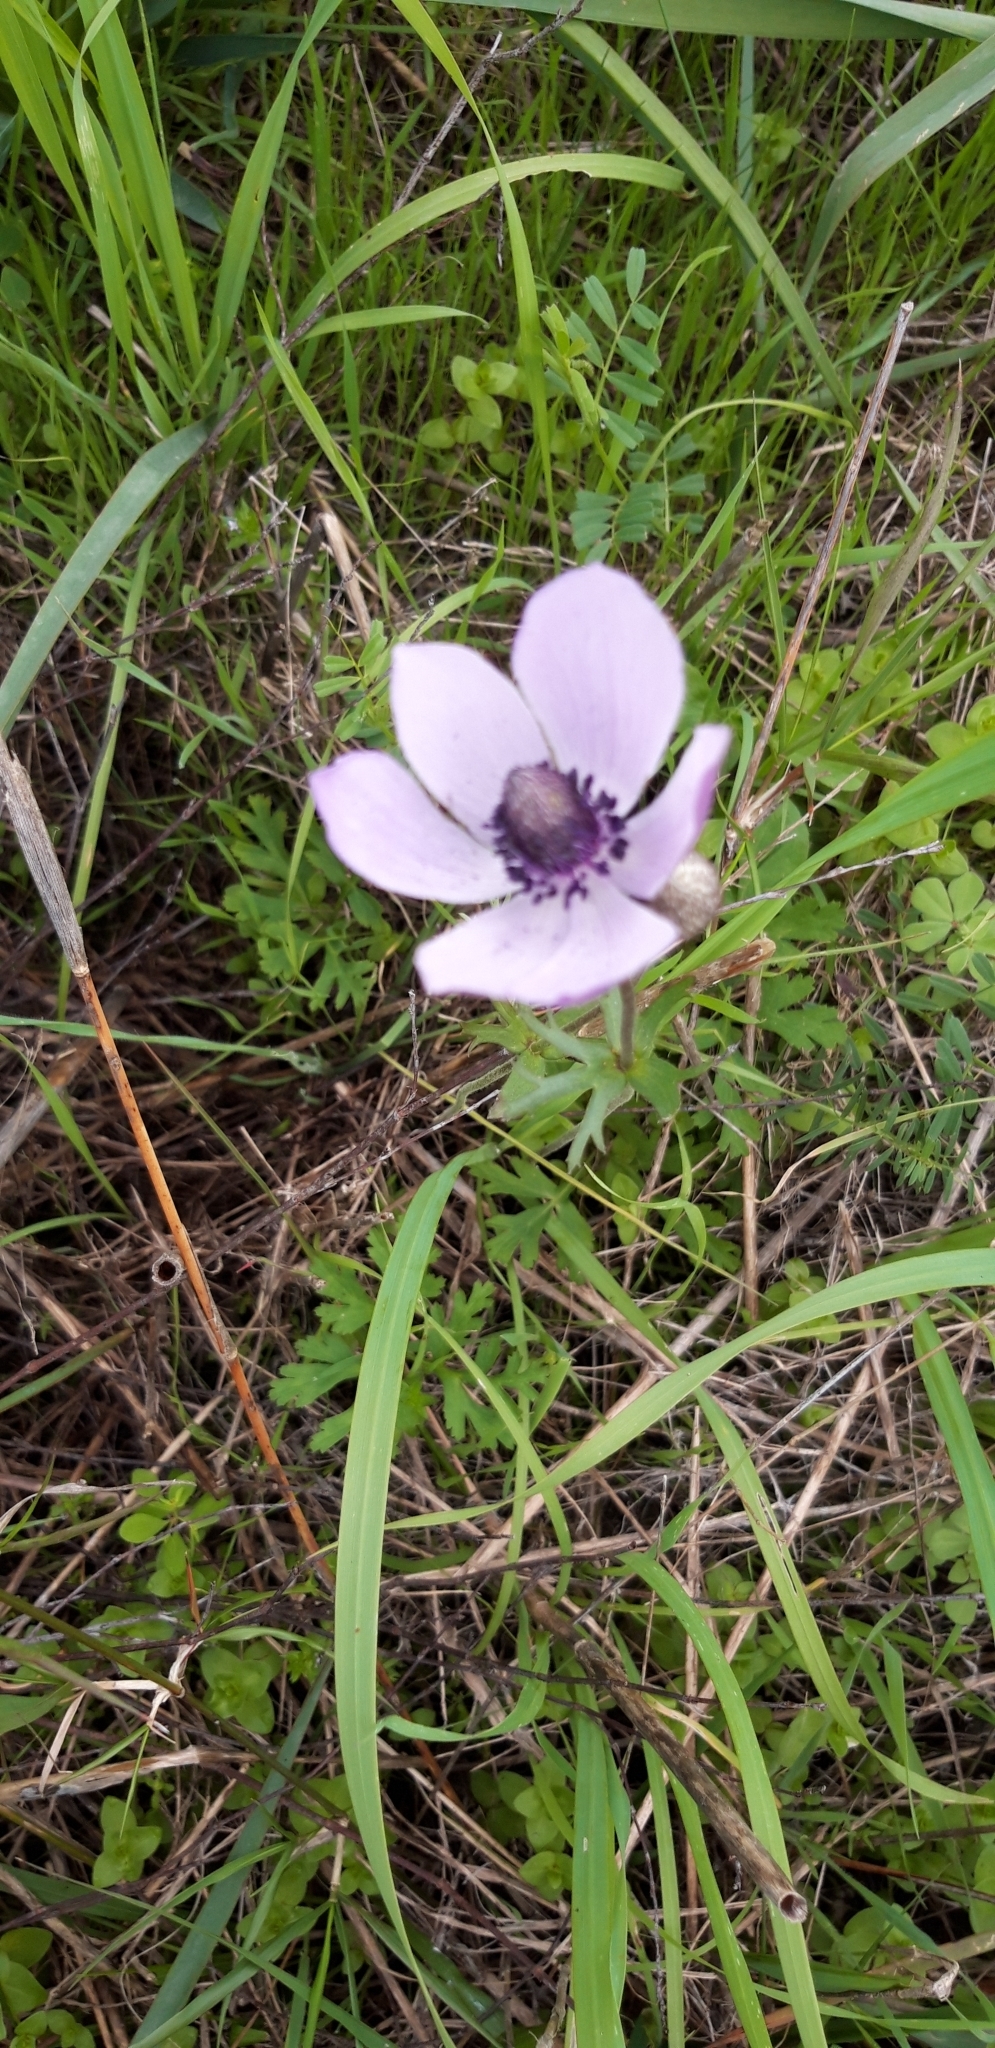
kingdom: Plantae
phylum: Tracheophyta
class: Magnoliopsida
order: Ranunculales
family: Ranunculaceae
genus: Anemone
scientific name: Anemone coronaria
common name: Poppy anemone
